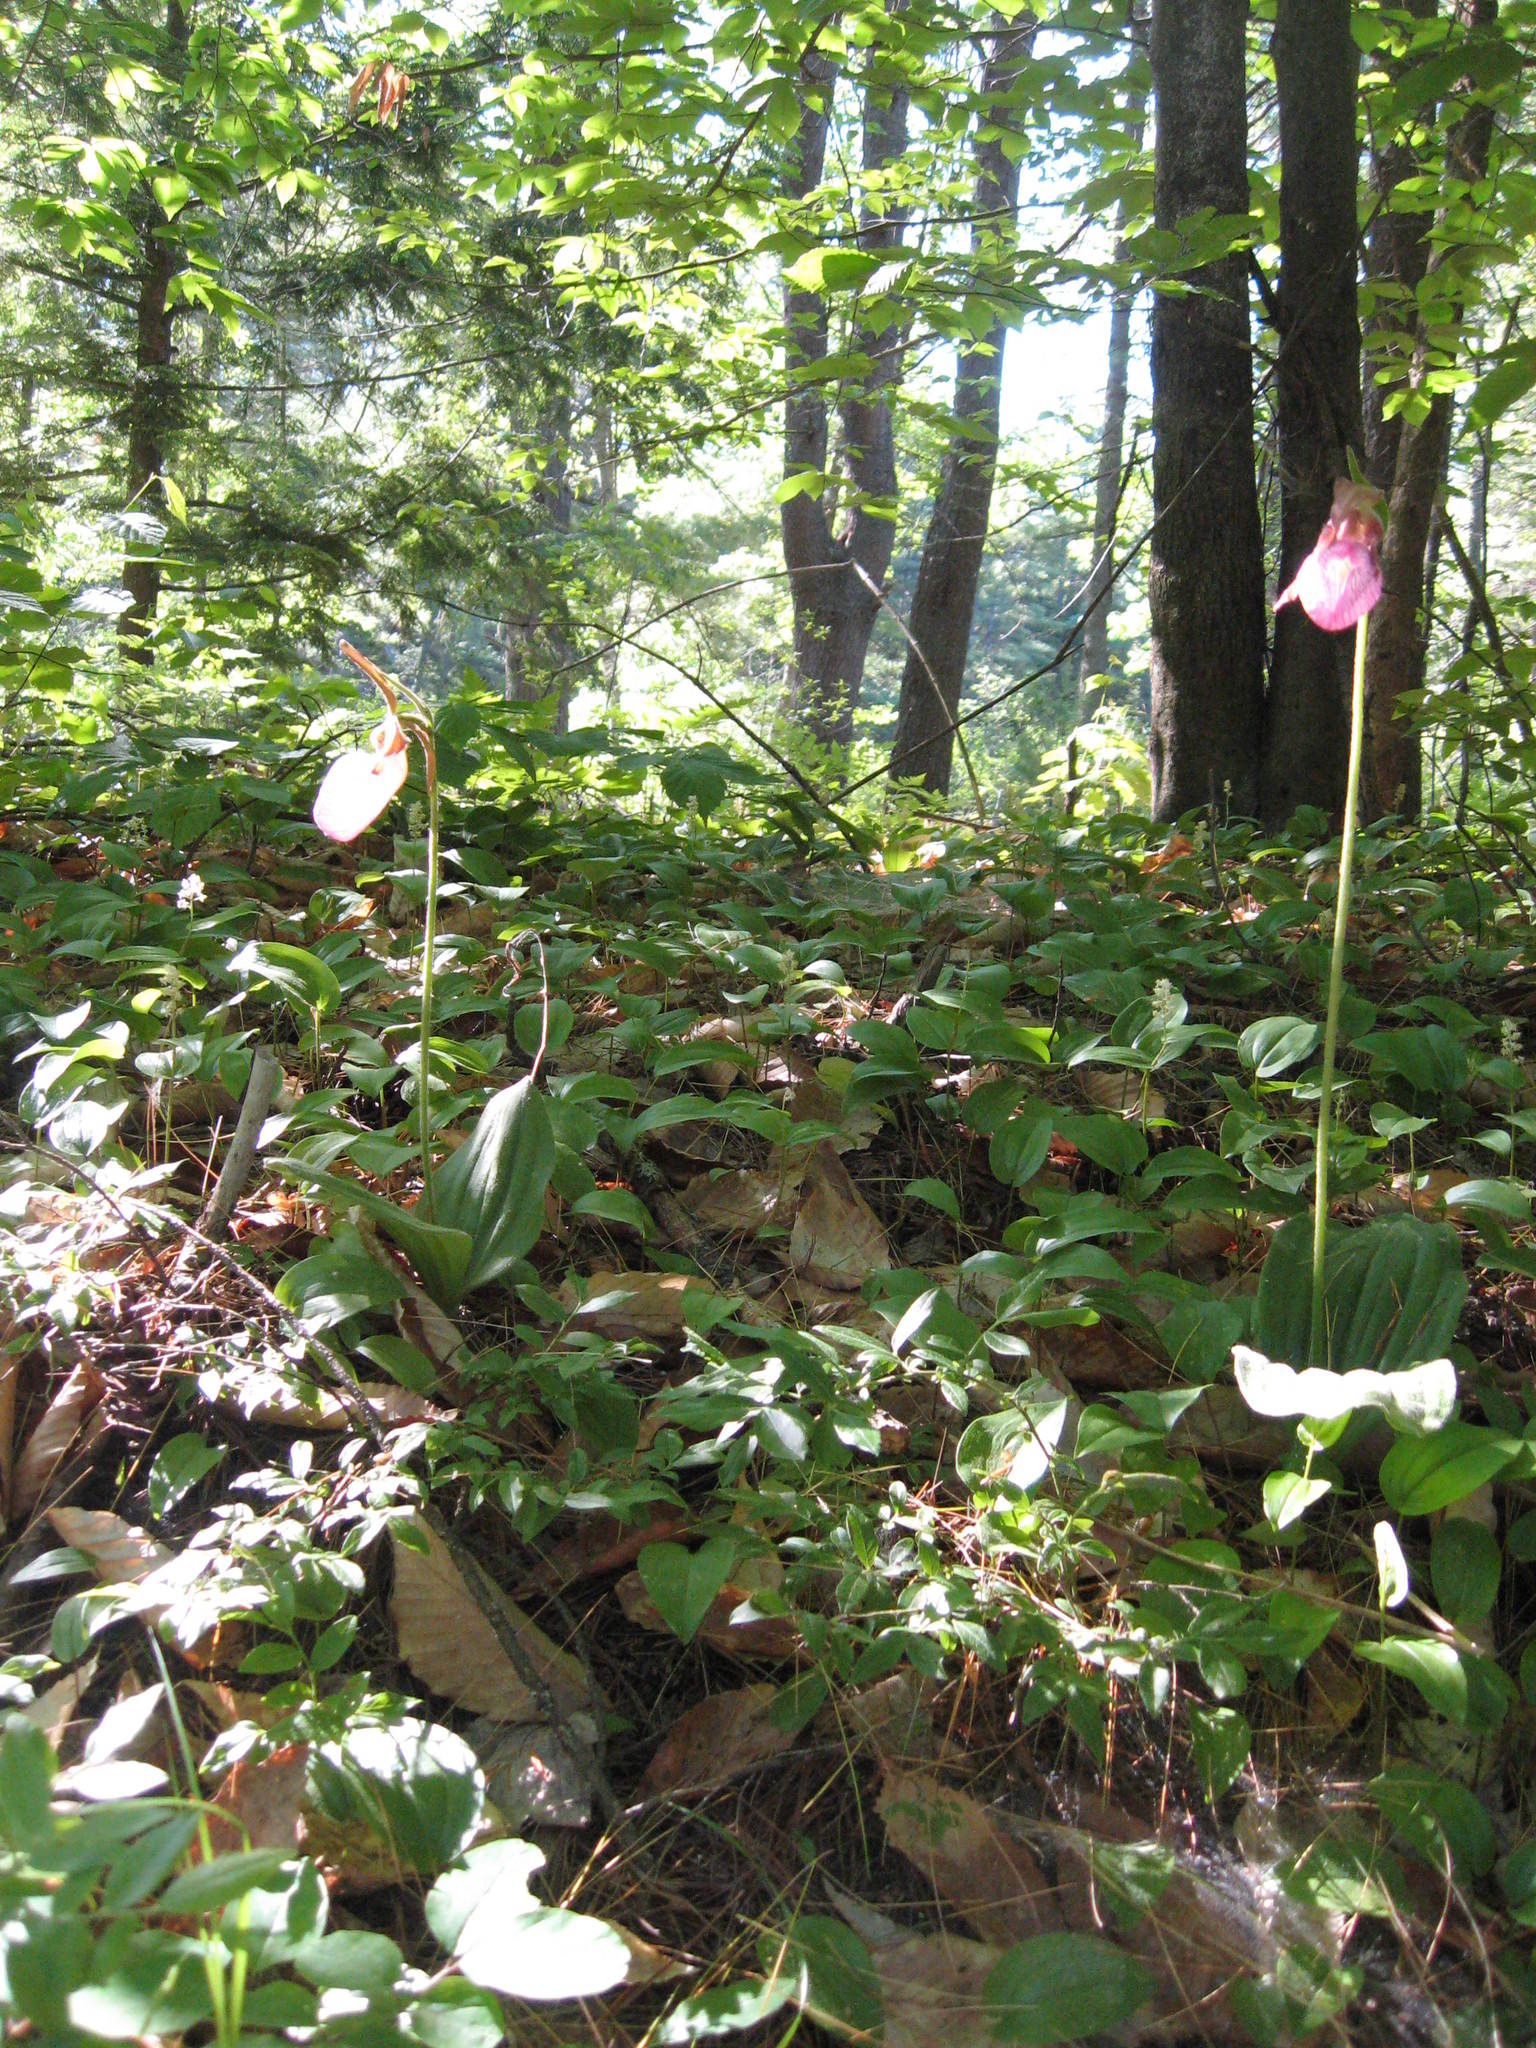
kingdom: Plantae
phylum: Tracheophyta
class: Liliopsida
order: Asparagales
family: Orchidaceae
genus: Cypripedium
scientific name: Cypripedium acaule
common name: Pink lady's-slipper
